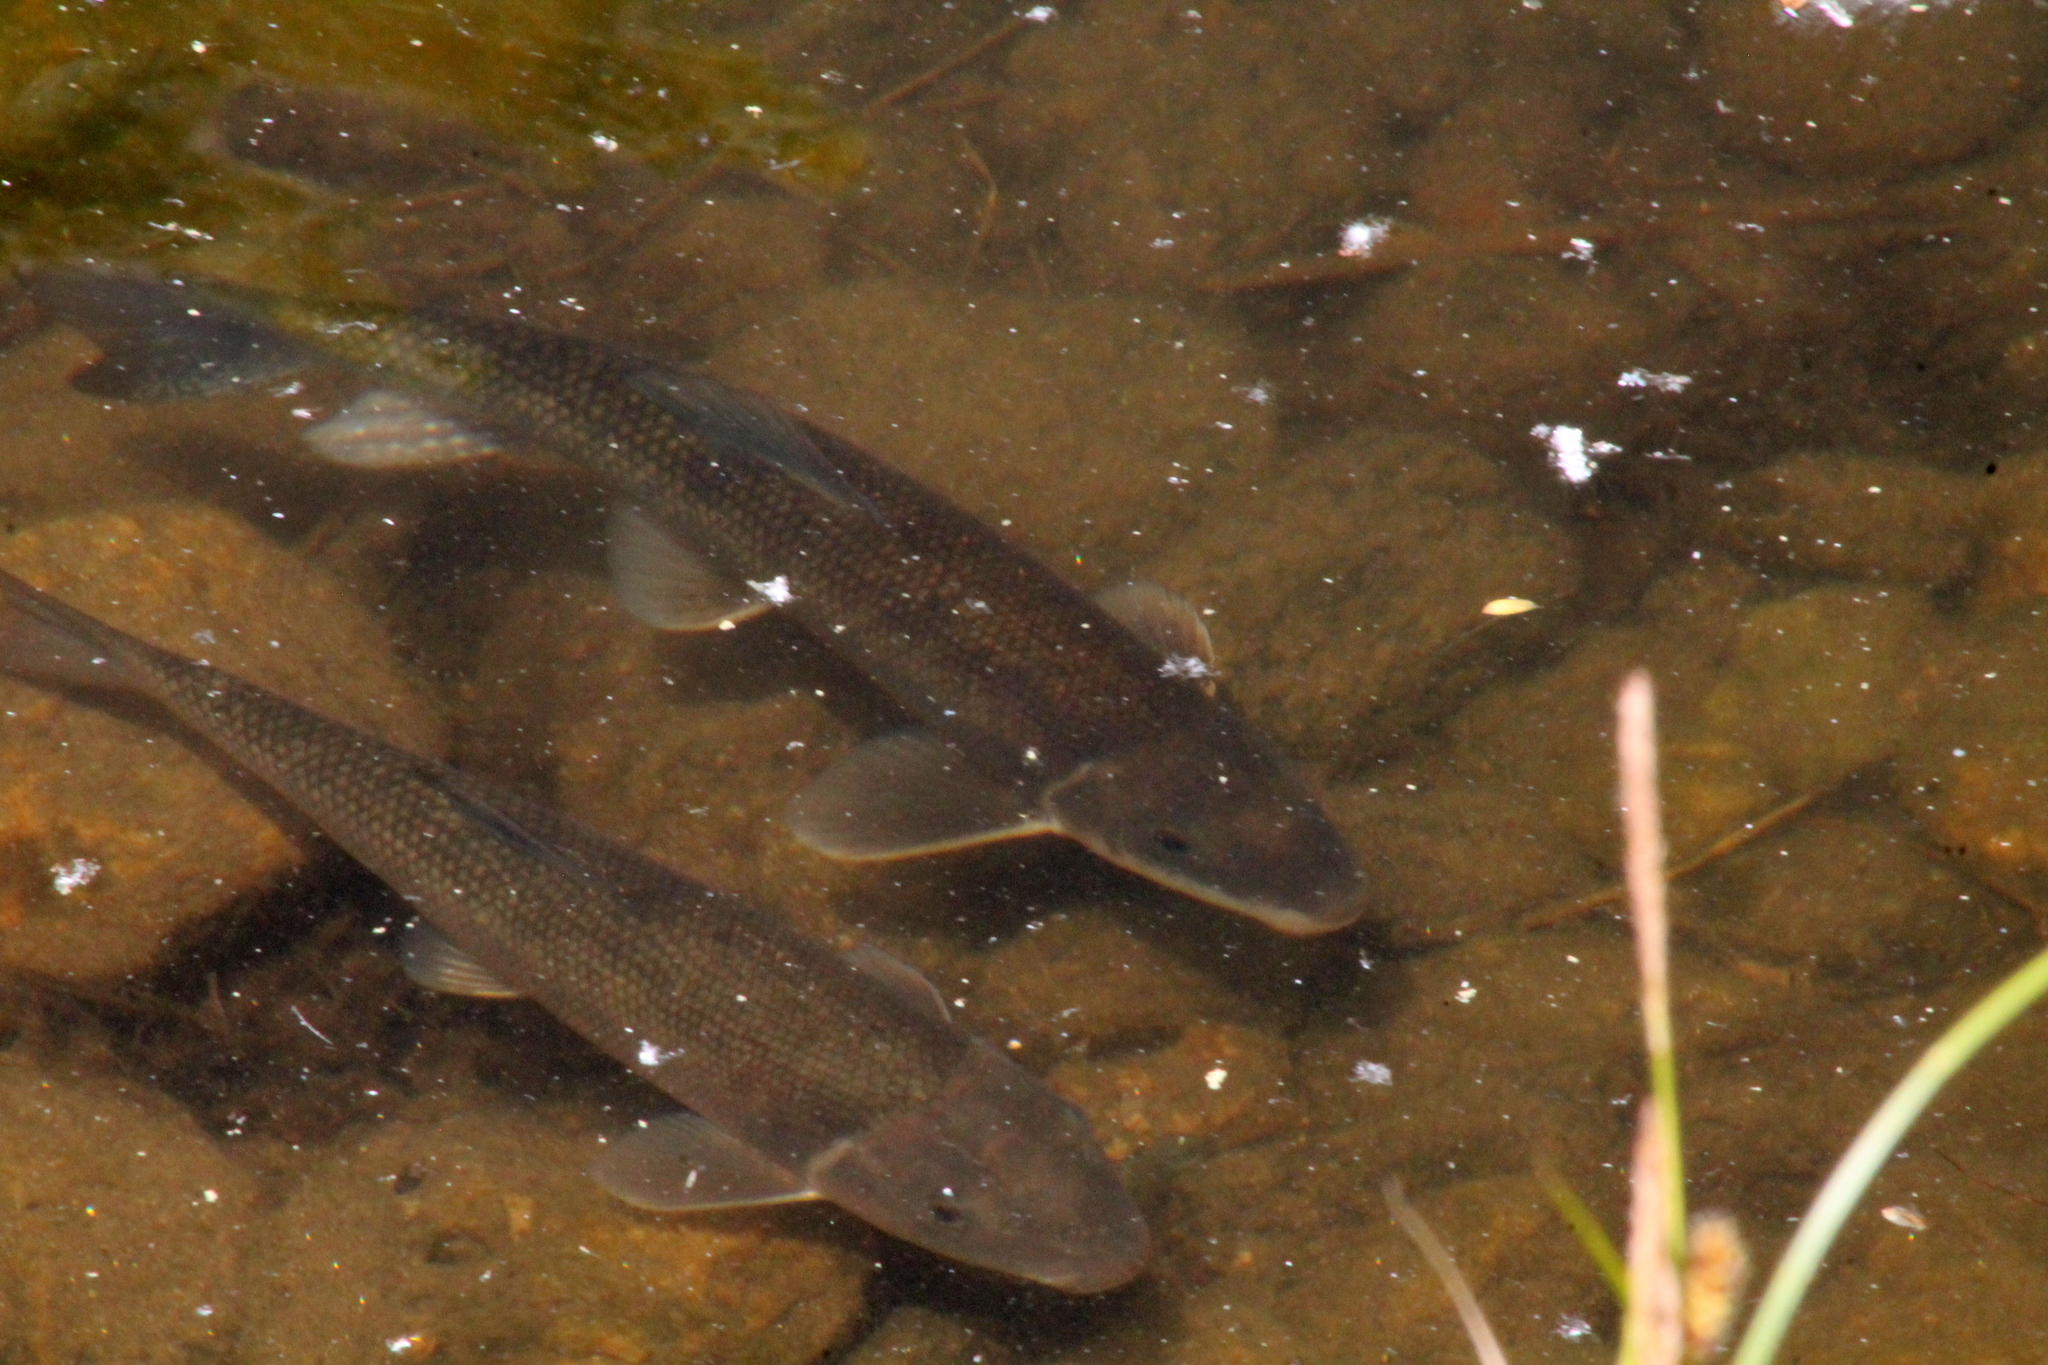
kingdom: Animalia
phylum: Chordata
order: Cypriniformes
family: Catostomidae
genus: Catostomus
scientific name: Catostomus commersonii
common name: White sucker
